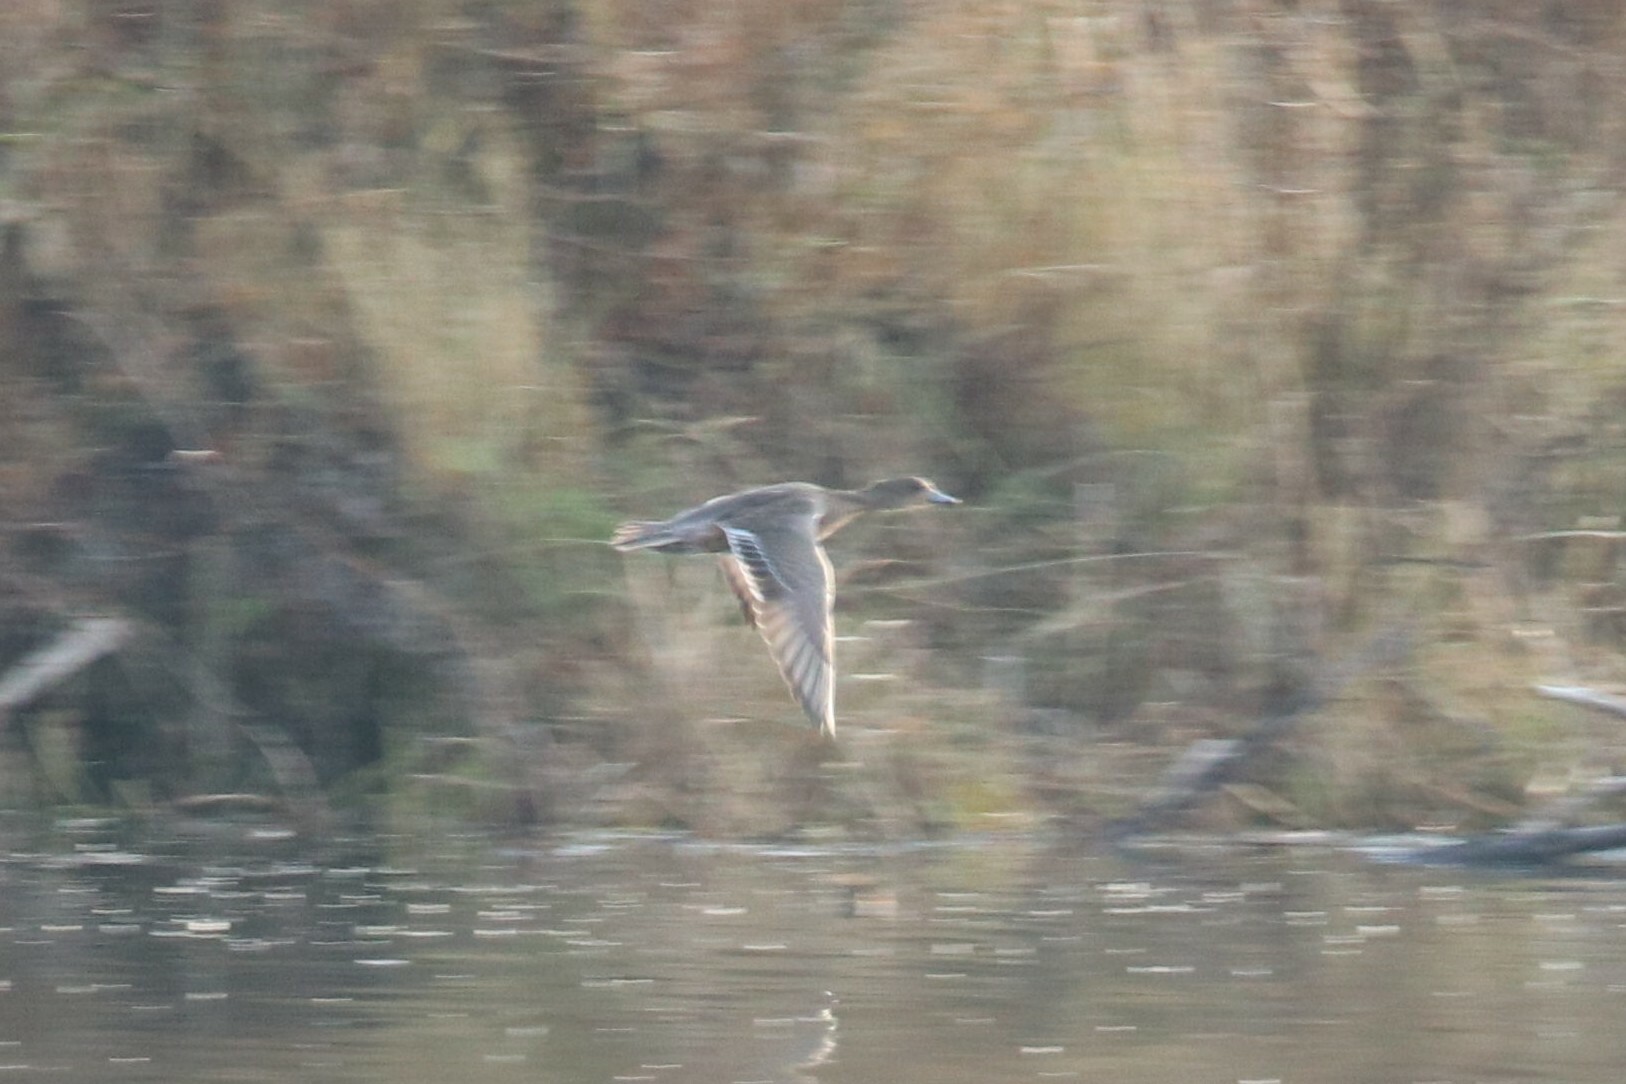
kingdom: Animalia
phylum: Chordata
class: Aves
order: Anseriformes
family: Anatidae
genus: Mareca
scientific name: Mareca penelope
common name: Eurasian wigeon
